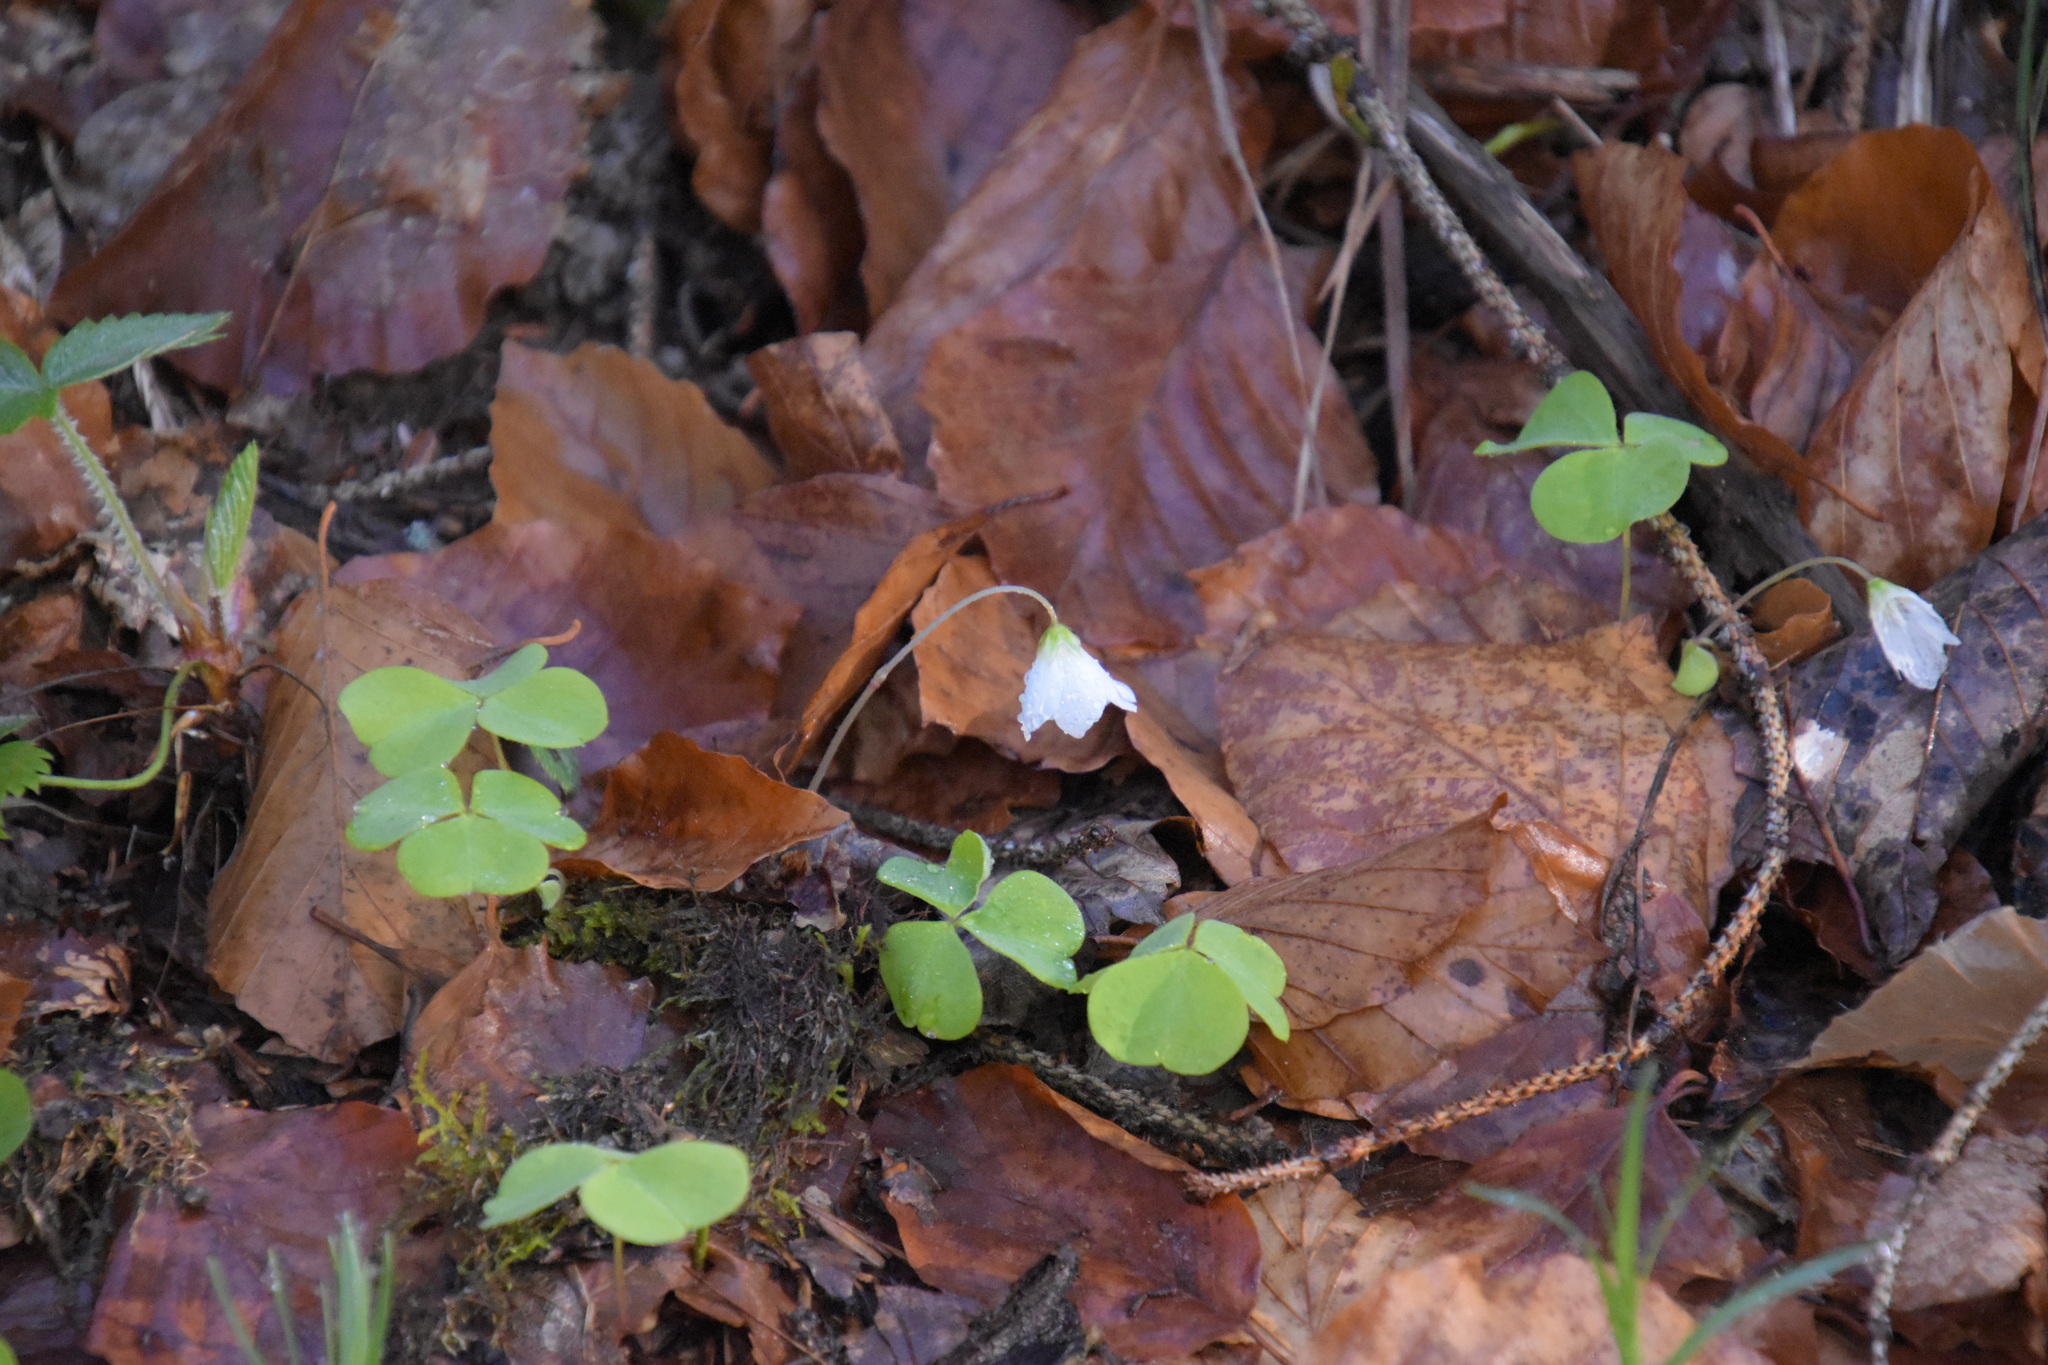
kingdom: Plantae
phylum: Tracheophyta
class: Magnoliopsida
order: Oxalidales
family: Oxalidaceae
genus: Oxalis
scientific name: Oxalis acetosella
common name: Wood-sorrel
